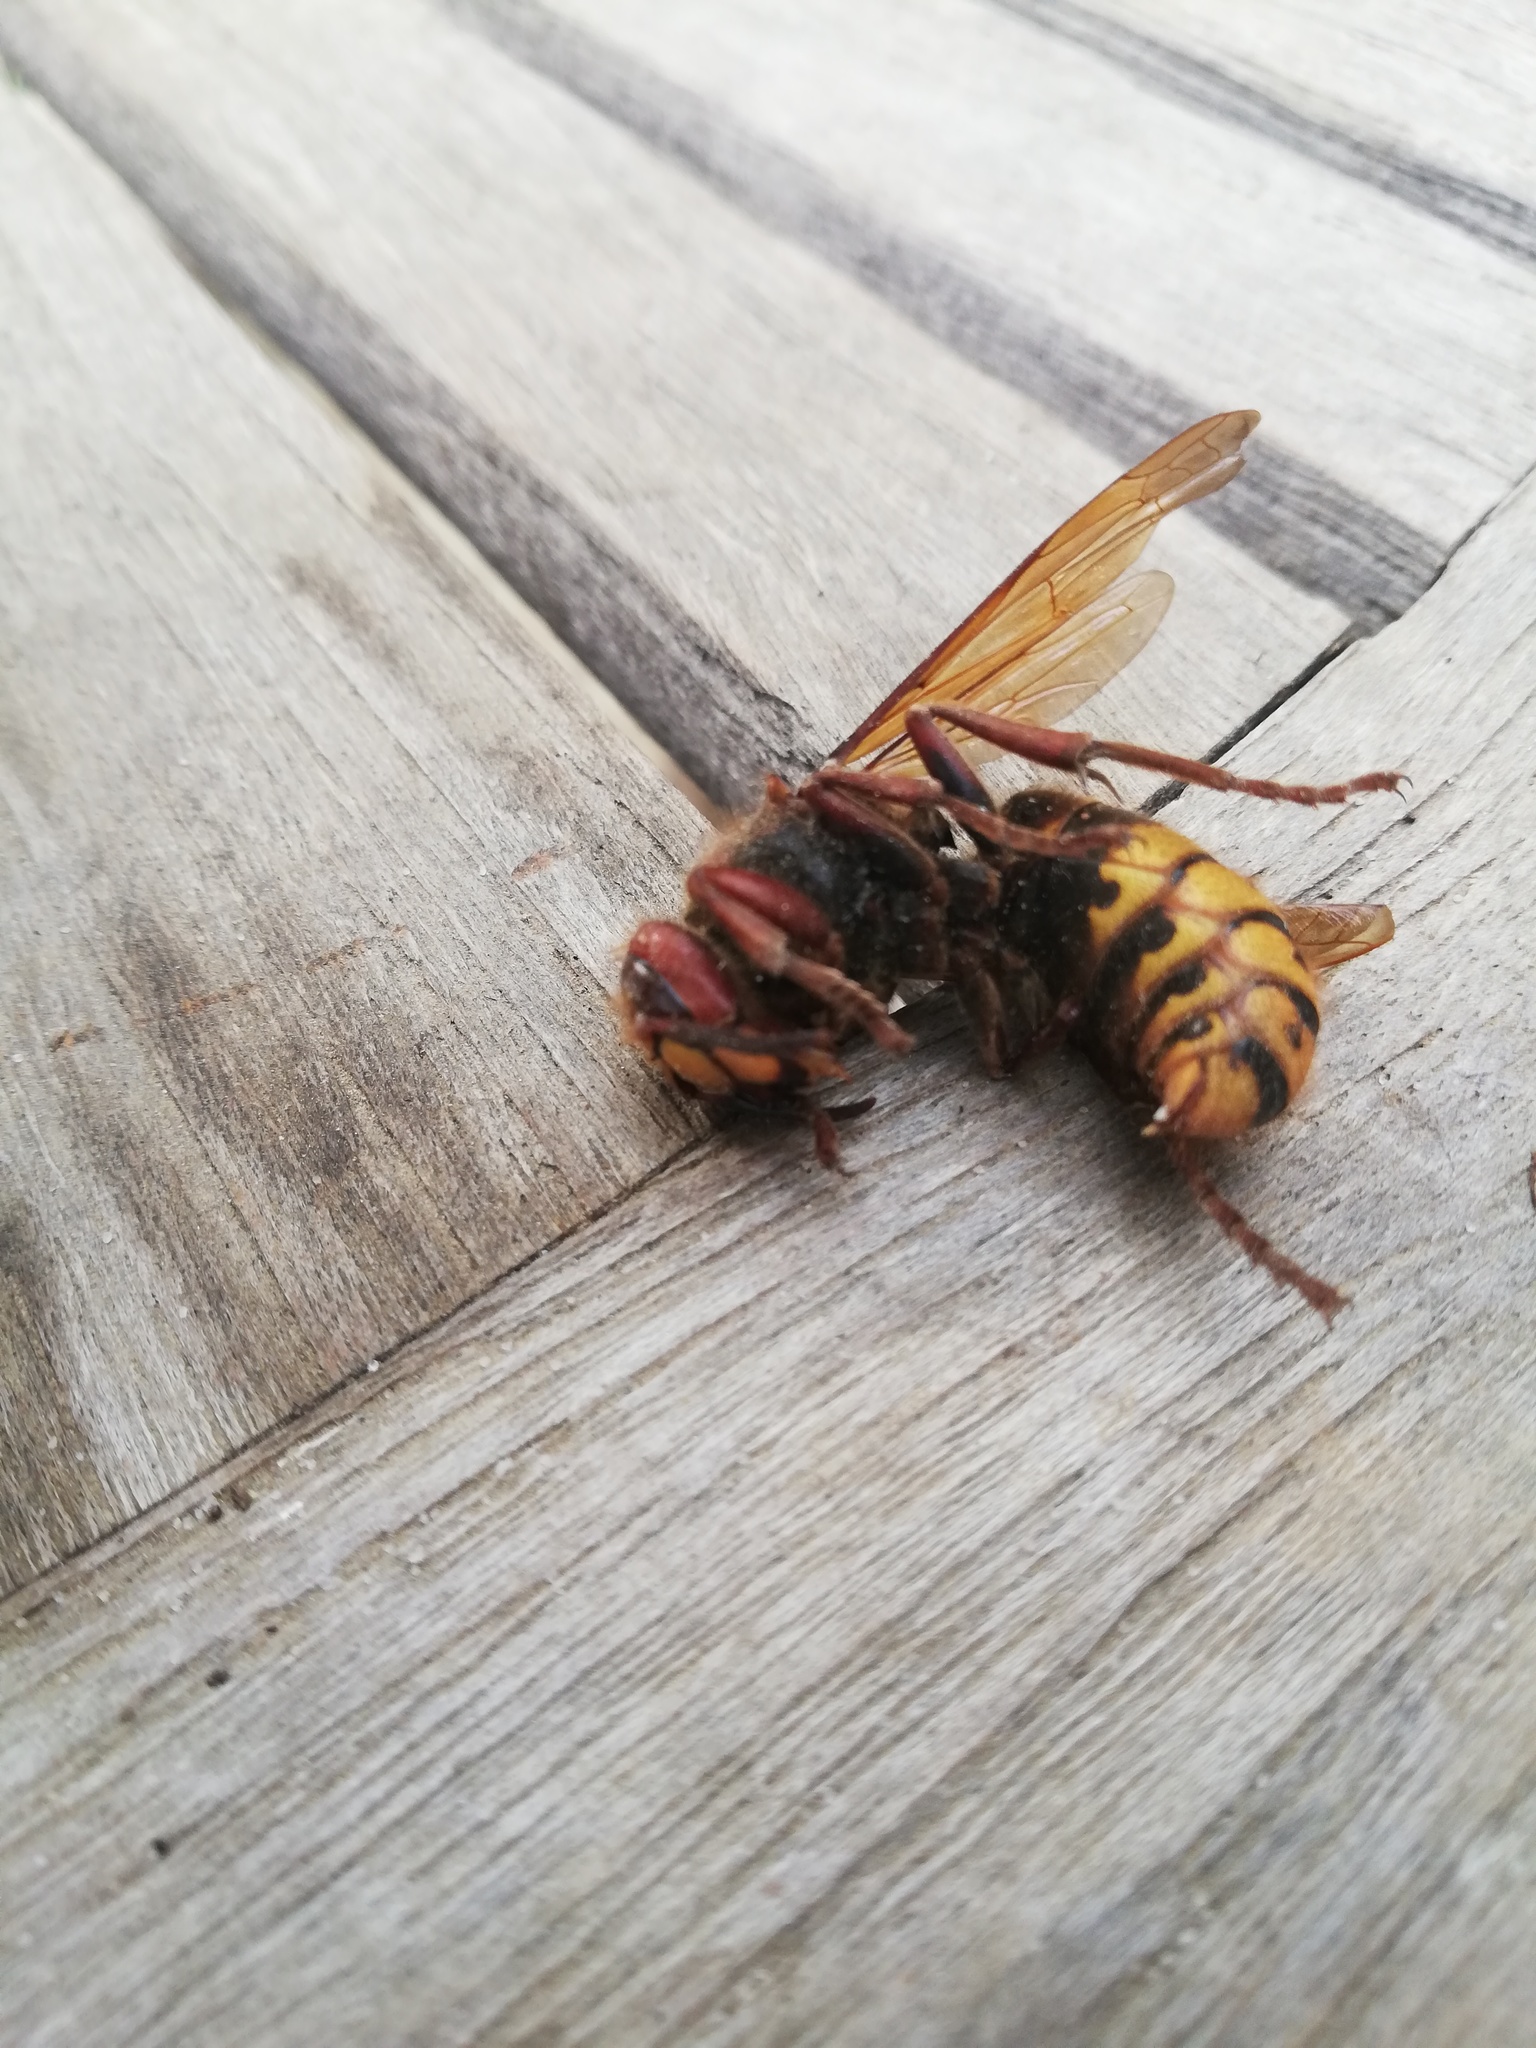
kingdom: Animalia
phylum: Arthropoda
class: Insecta
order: Hymenoptera
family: Vespidae
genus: Vespa
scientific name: Vespa crabro
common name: Hornet
